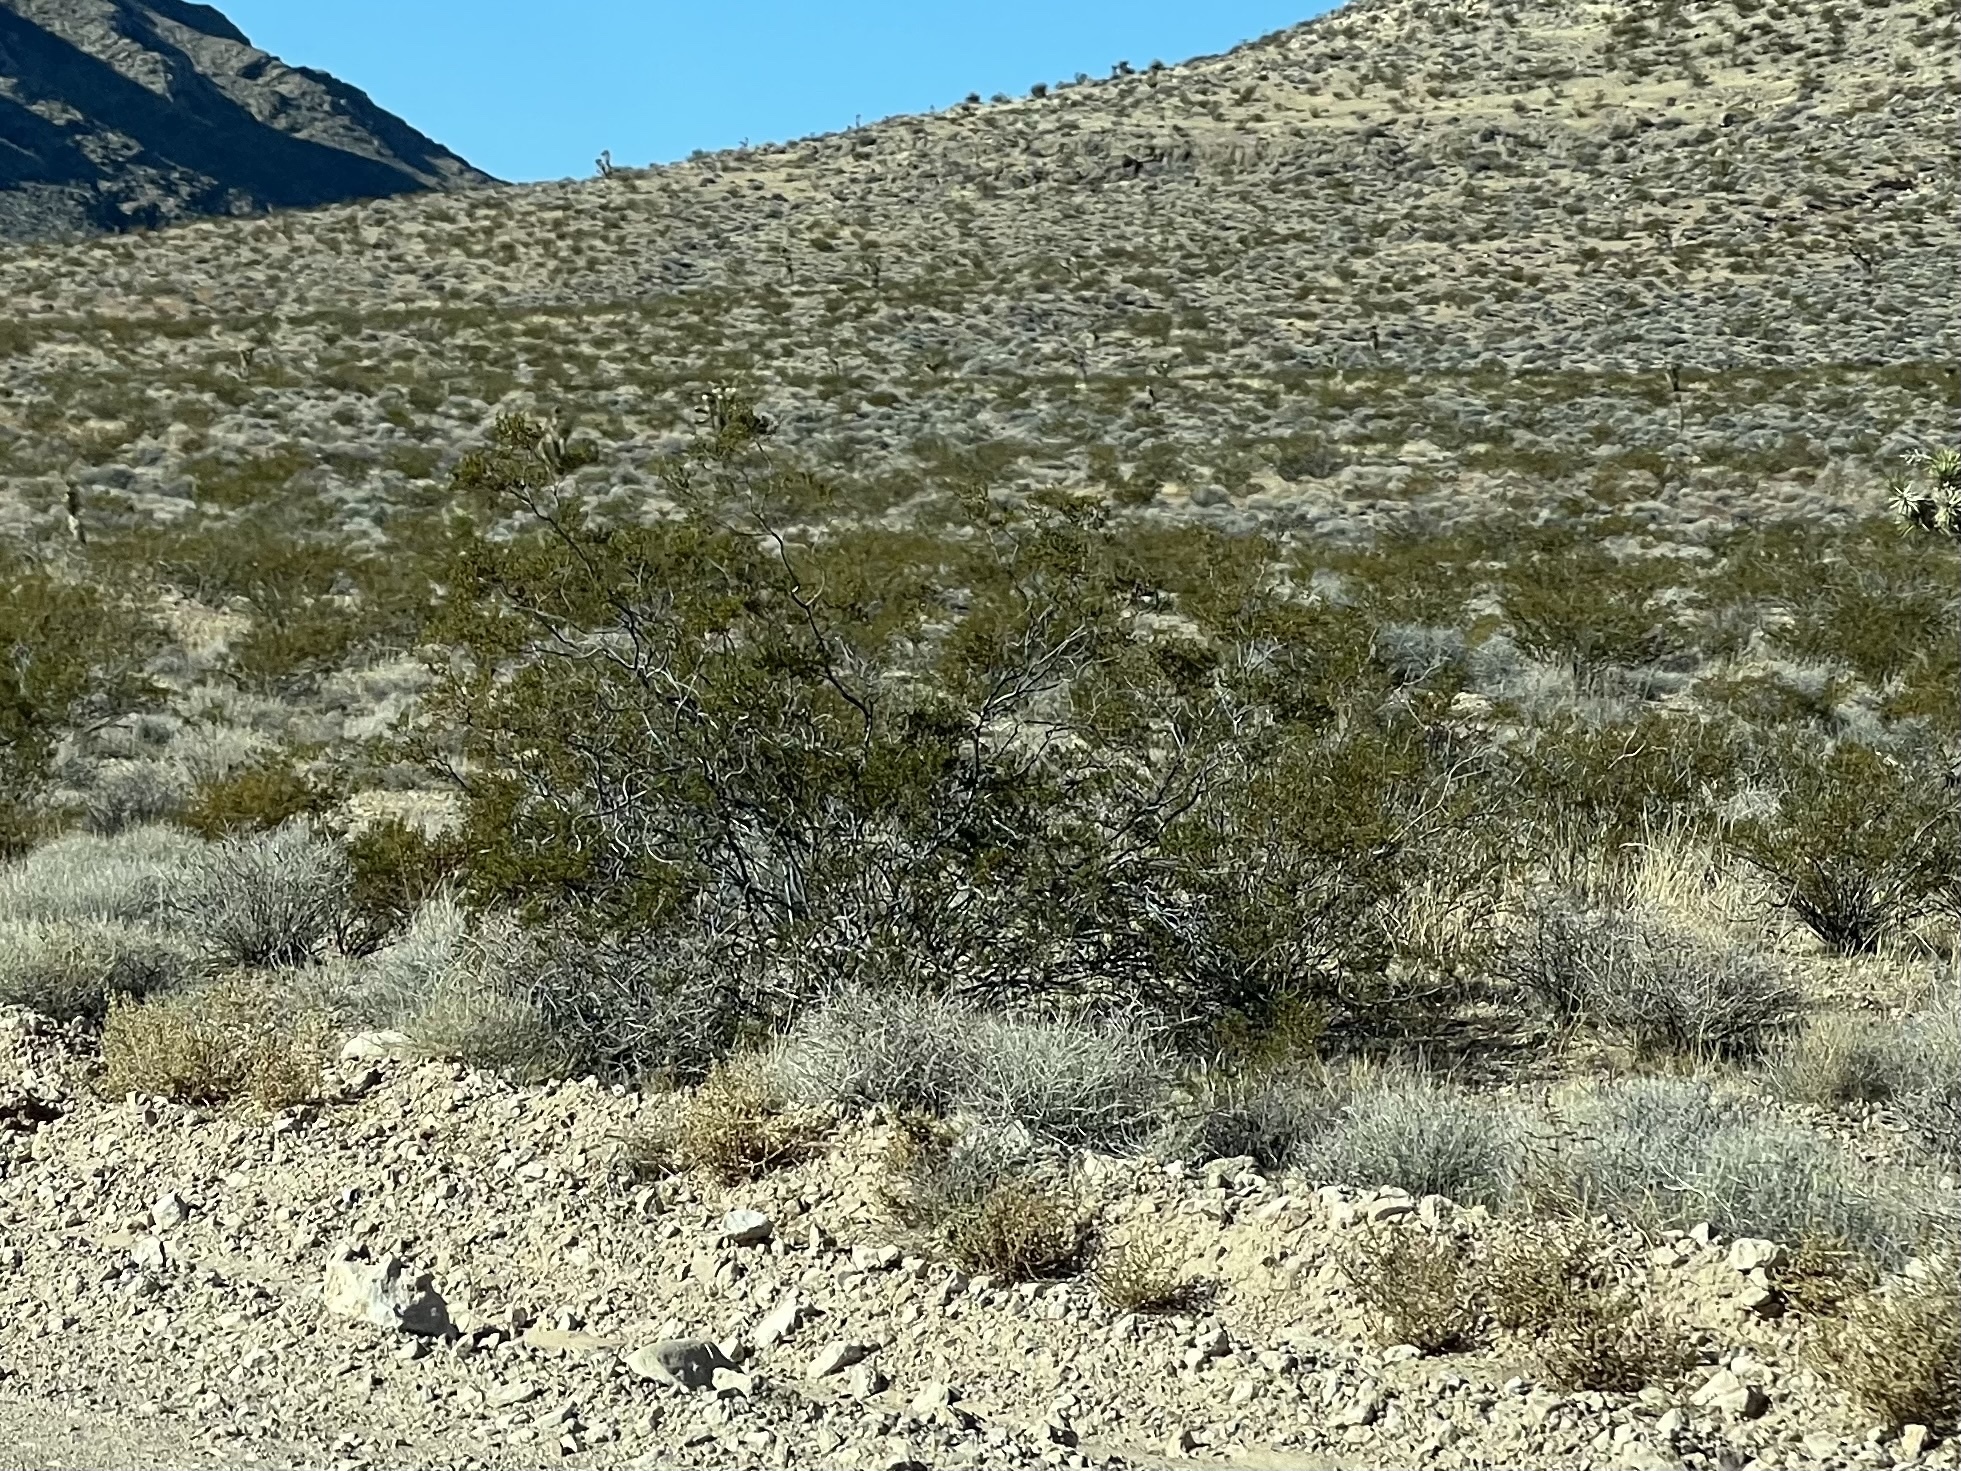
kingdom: Plantae
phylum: Tracheophyta
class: Magnoliopsida
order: Zygophyllales
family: Zygophyllaceae
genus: Larrea
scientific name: Larrea tridentata
